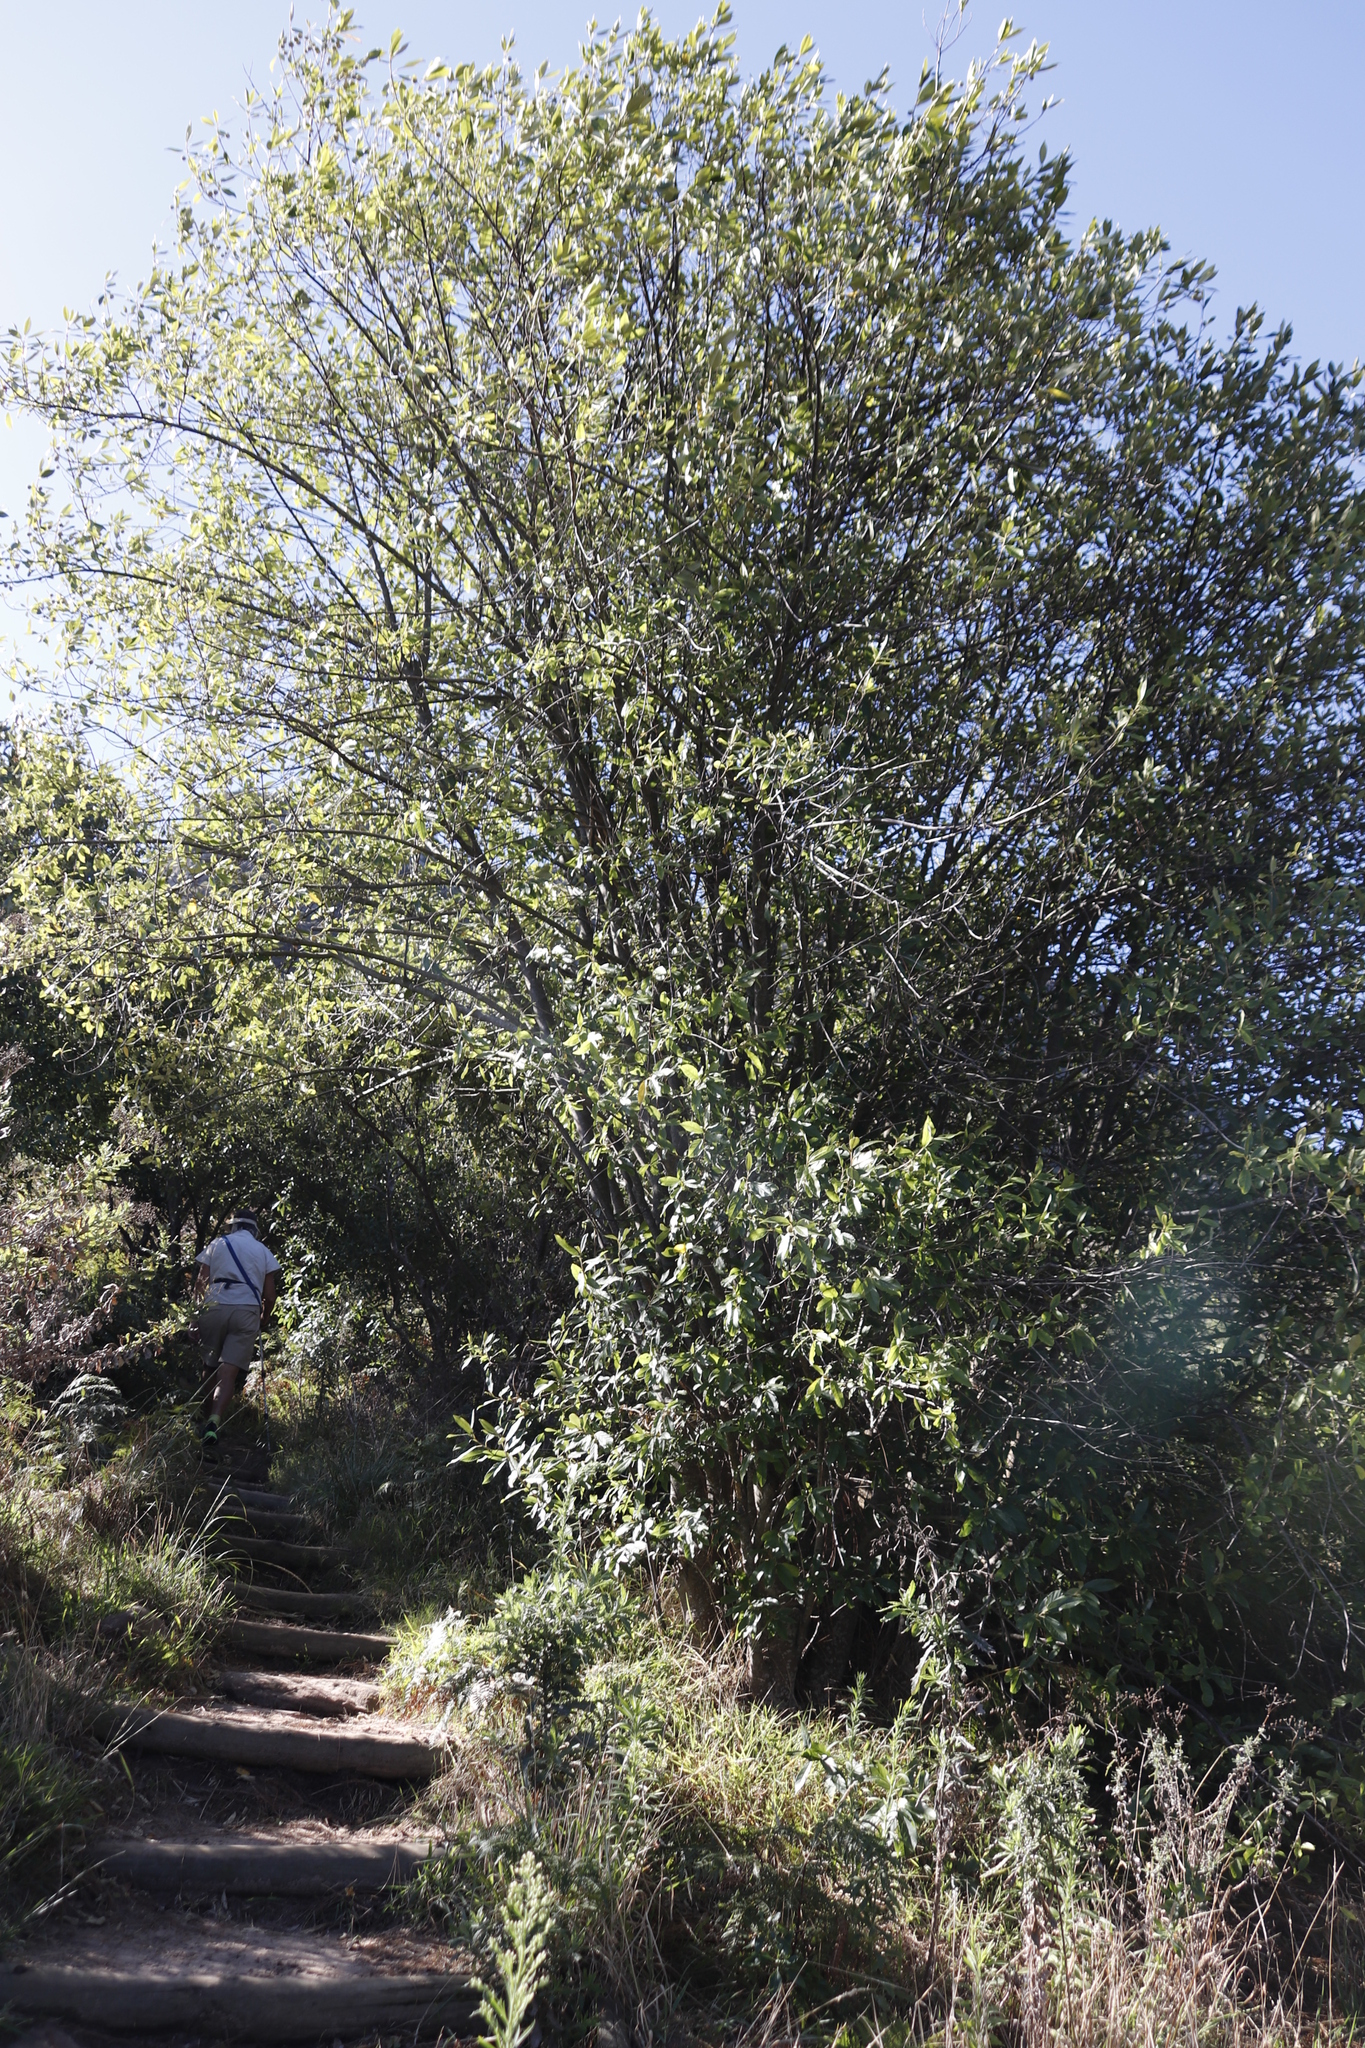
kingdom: Plantae
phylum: Tracheophyta
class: Magnoliopsida
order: Malpighiales
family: Achariaceae
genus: Kiggelaria
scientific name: Kiggelaria africana
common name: Wild peach
